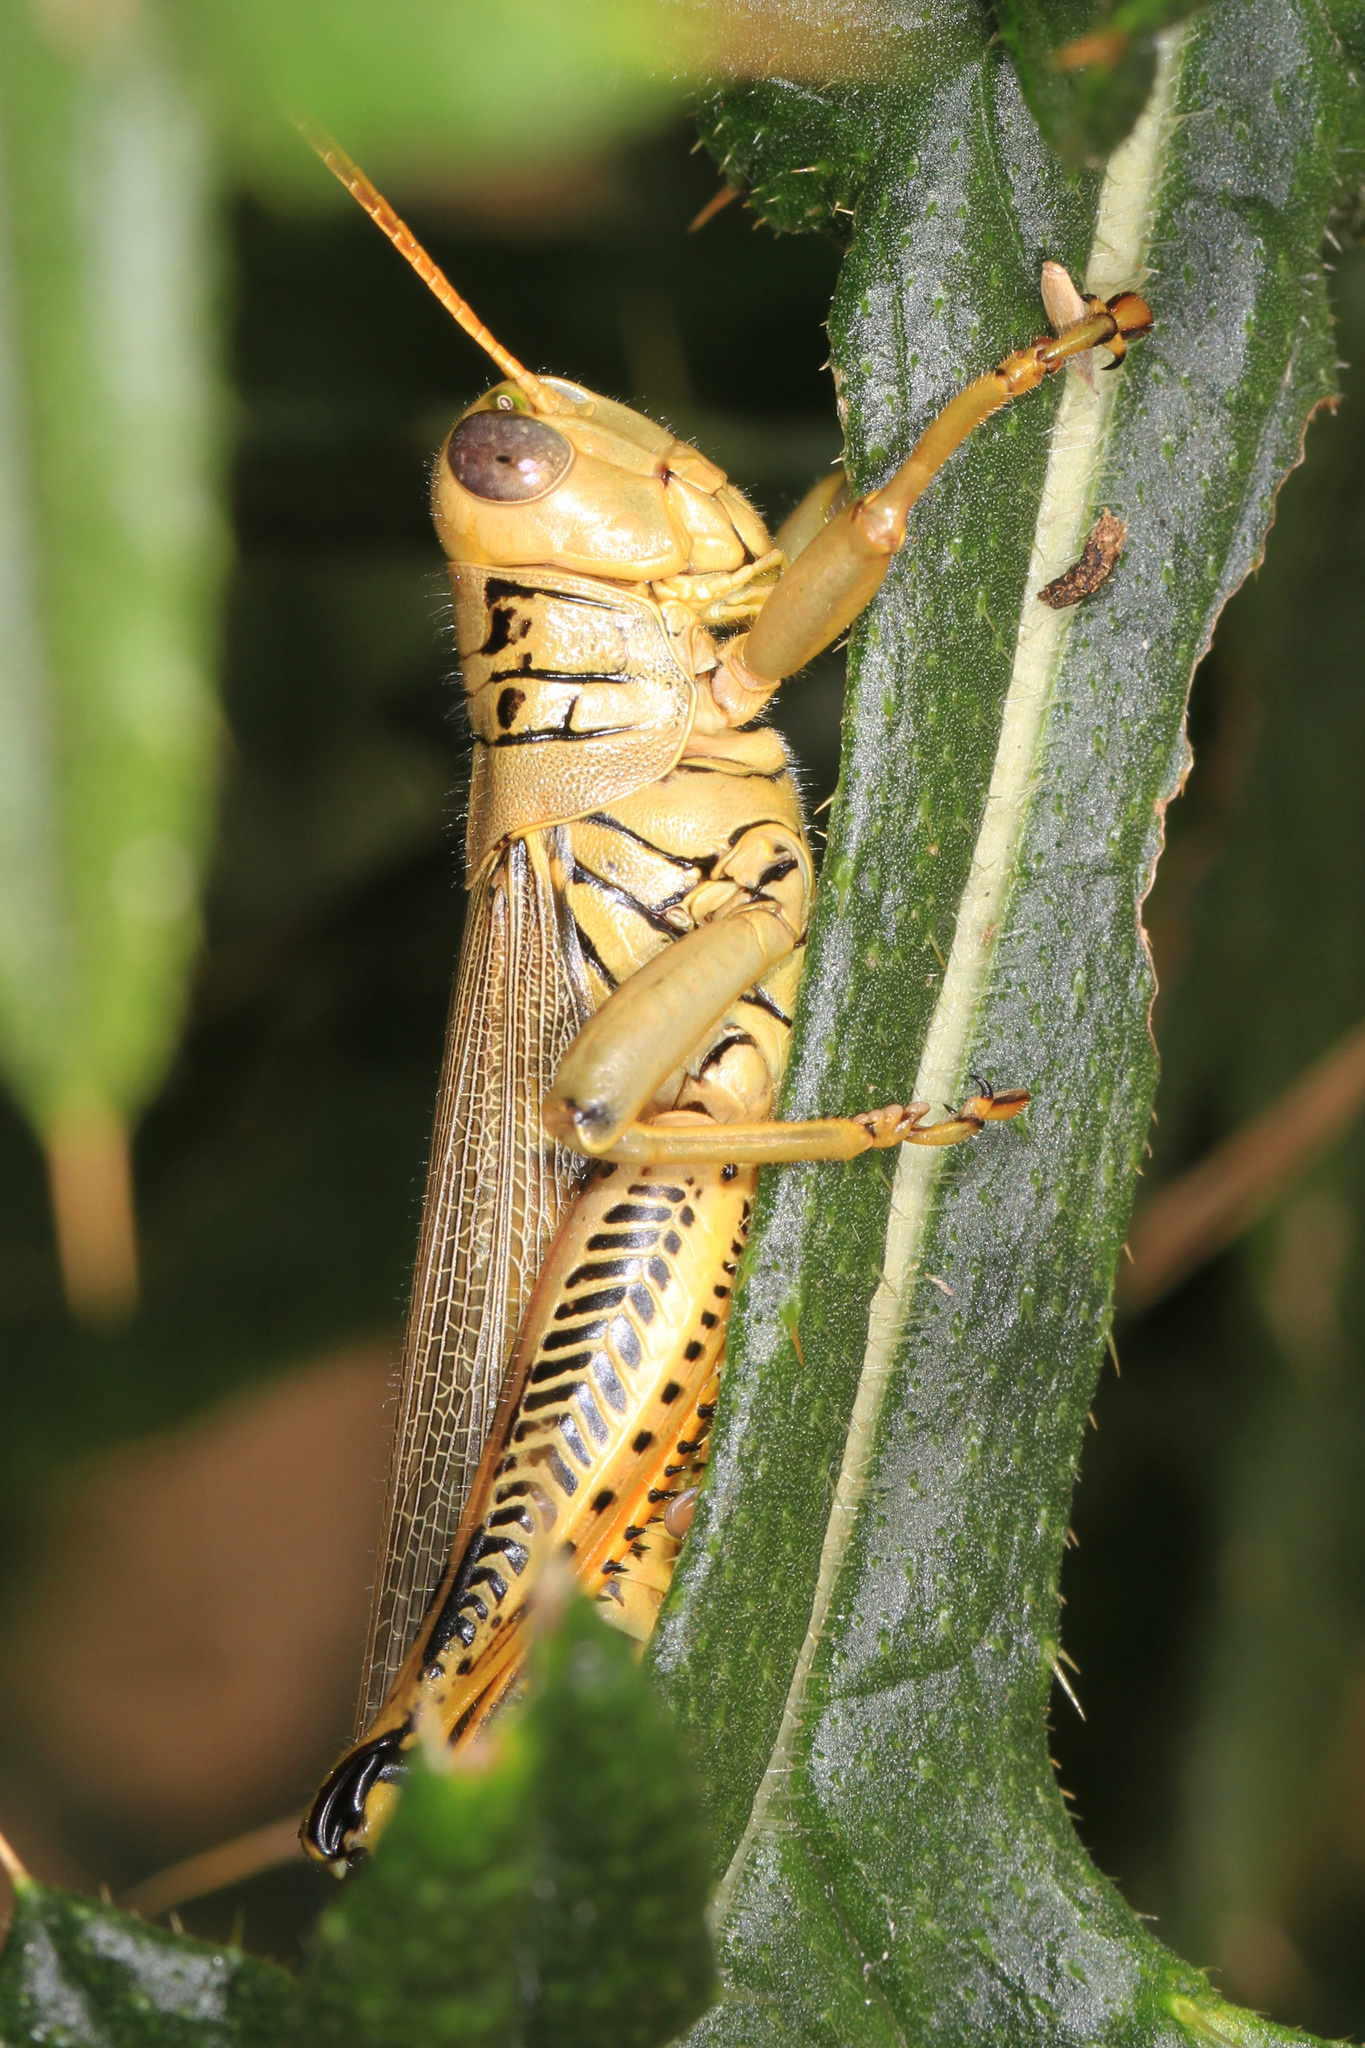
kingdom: Animalia
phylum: Arthropoda
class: Insecta
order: Orthoptera
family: Acrididae
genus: Melanoplus
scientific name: Melanoplus differentialis
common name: Differential grasshopper
